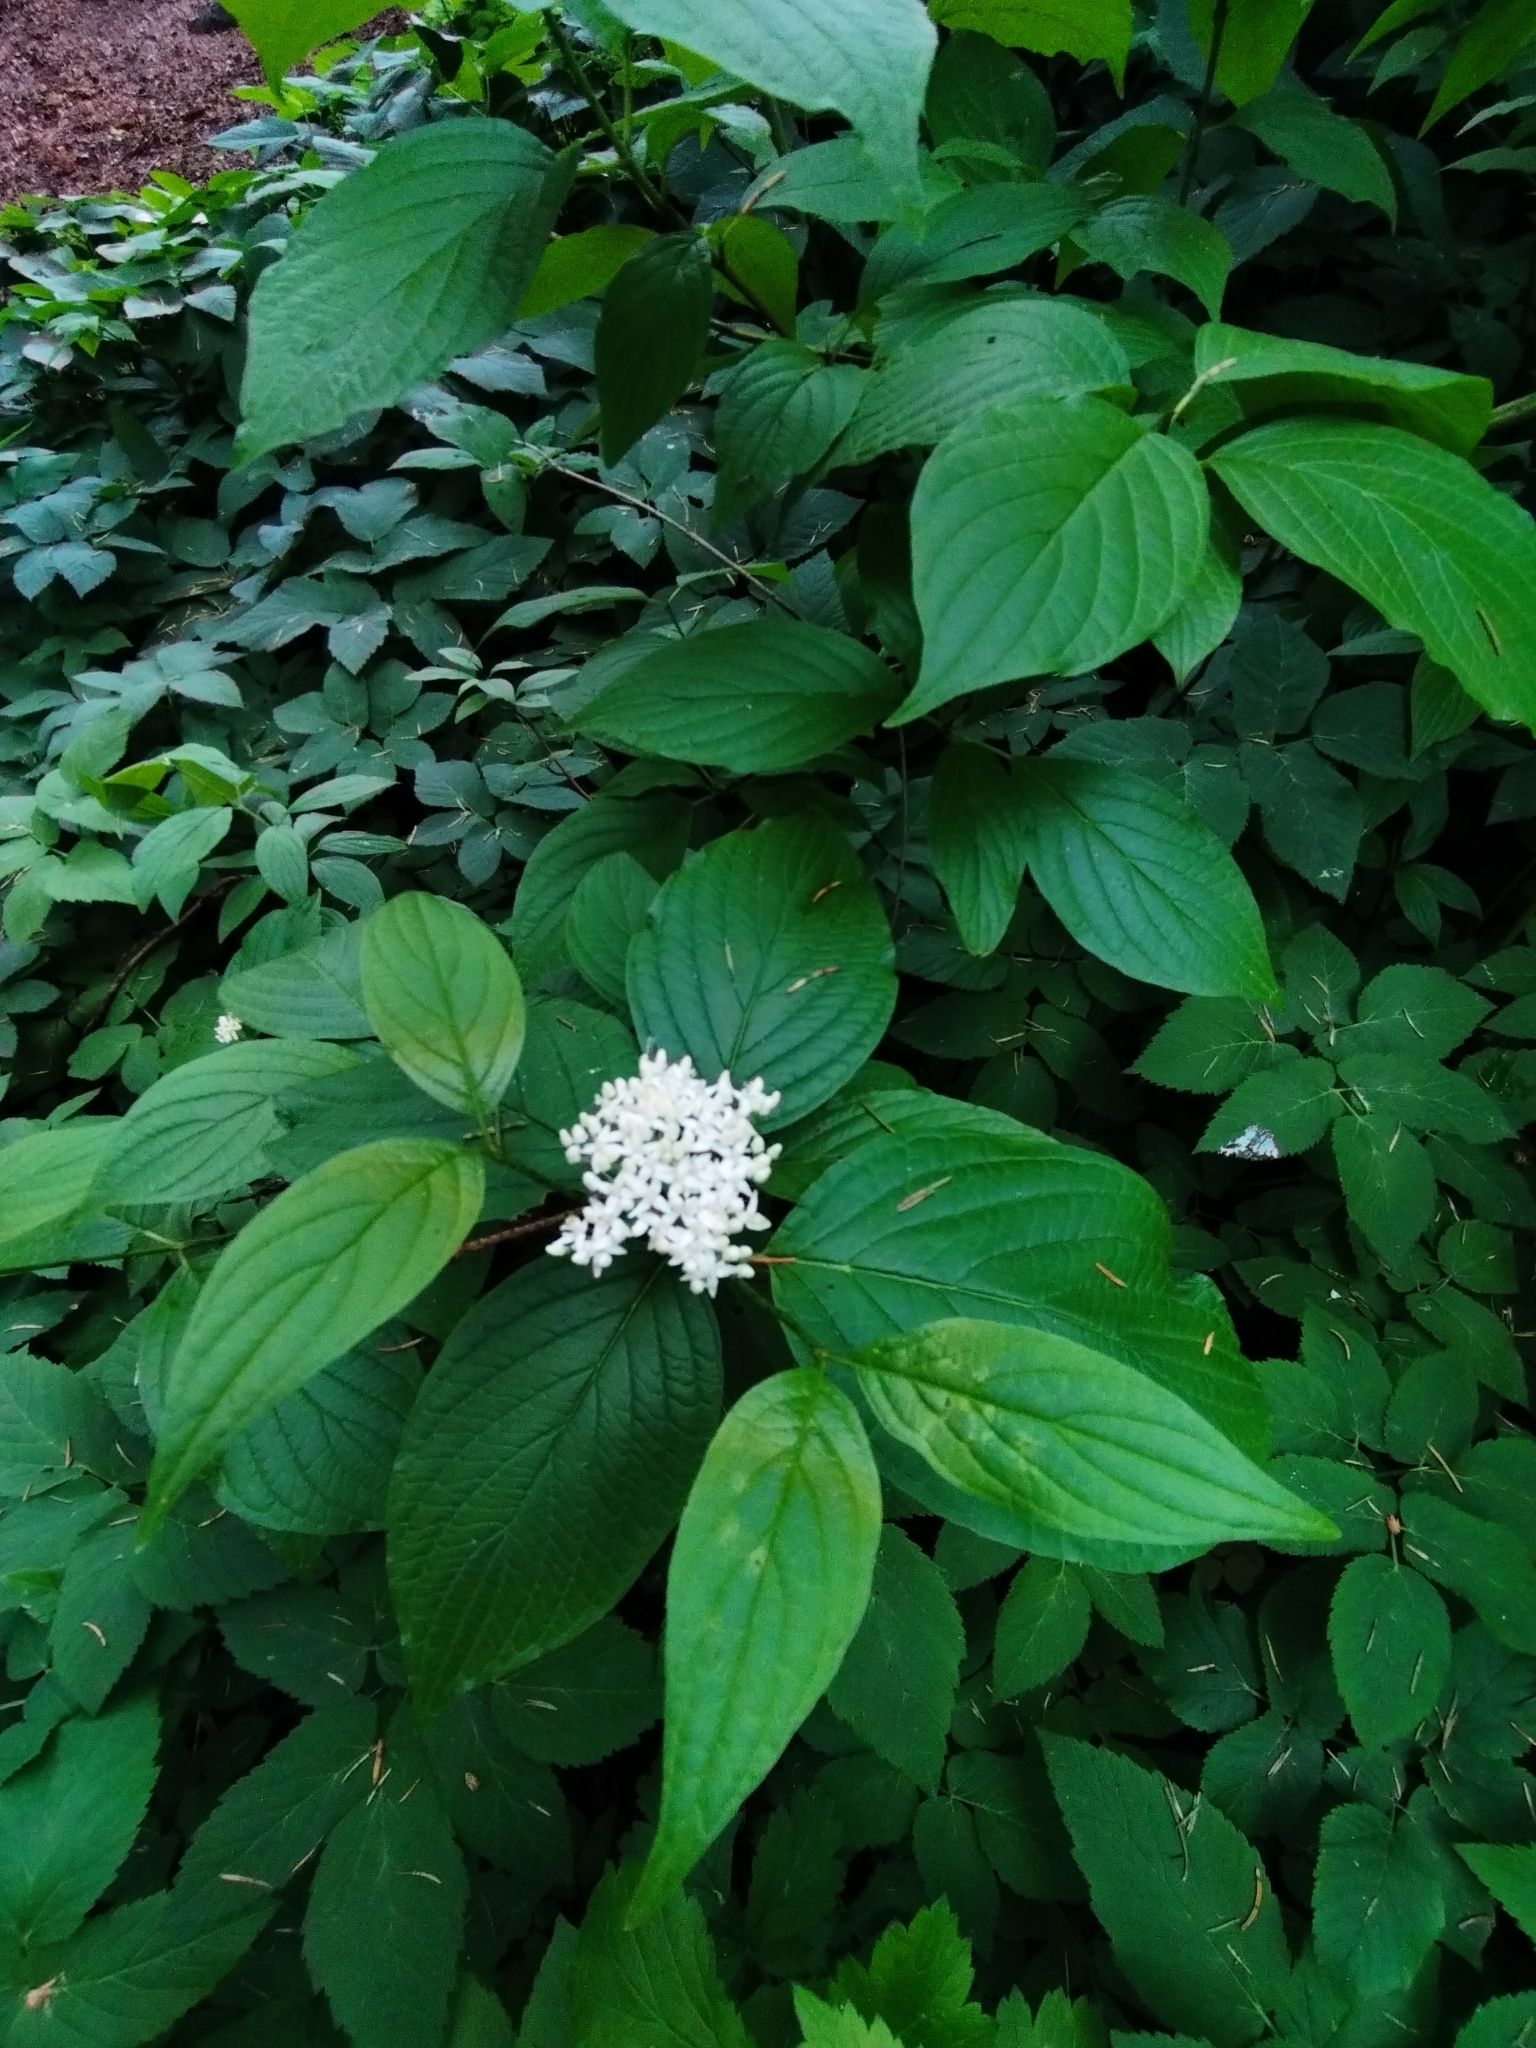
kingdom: Plantae
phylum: Tracheophyta
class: Magnoliopsida
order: Cornales
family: Cornaceae
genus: Cornus
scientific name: Cornus alba
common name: White dogwood
